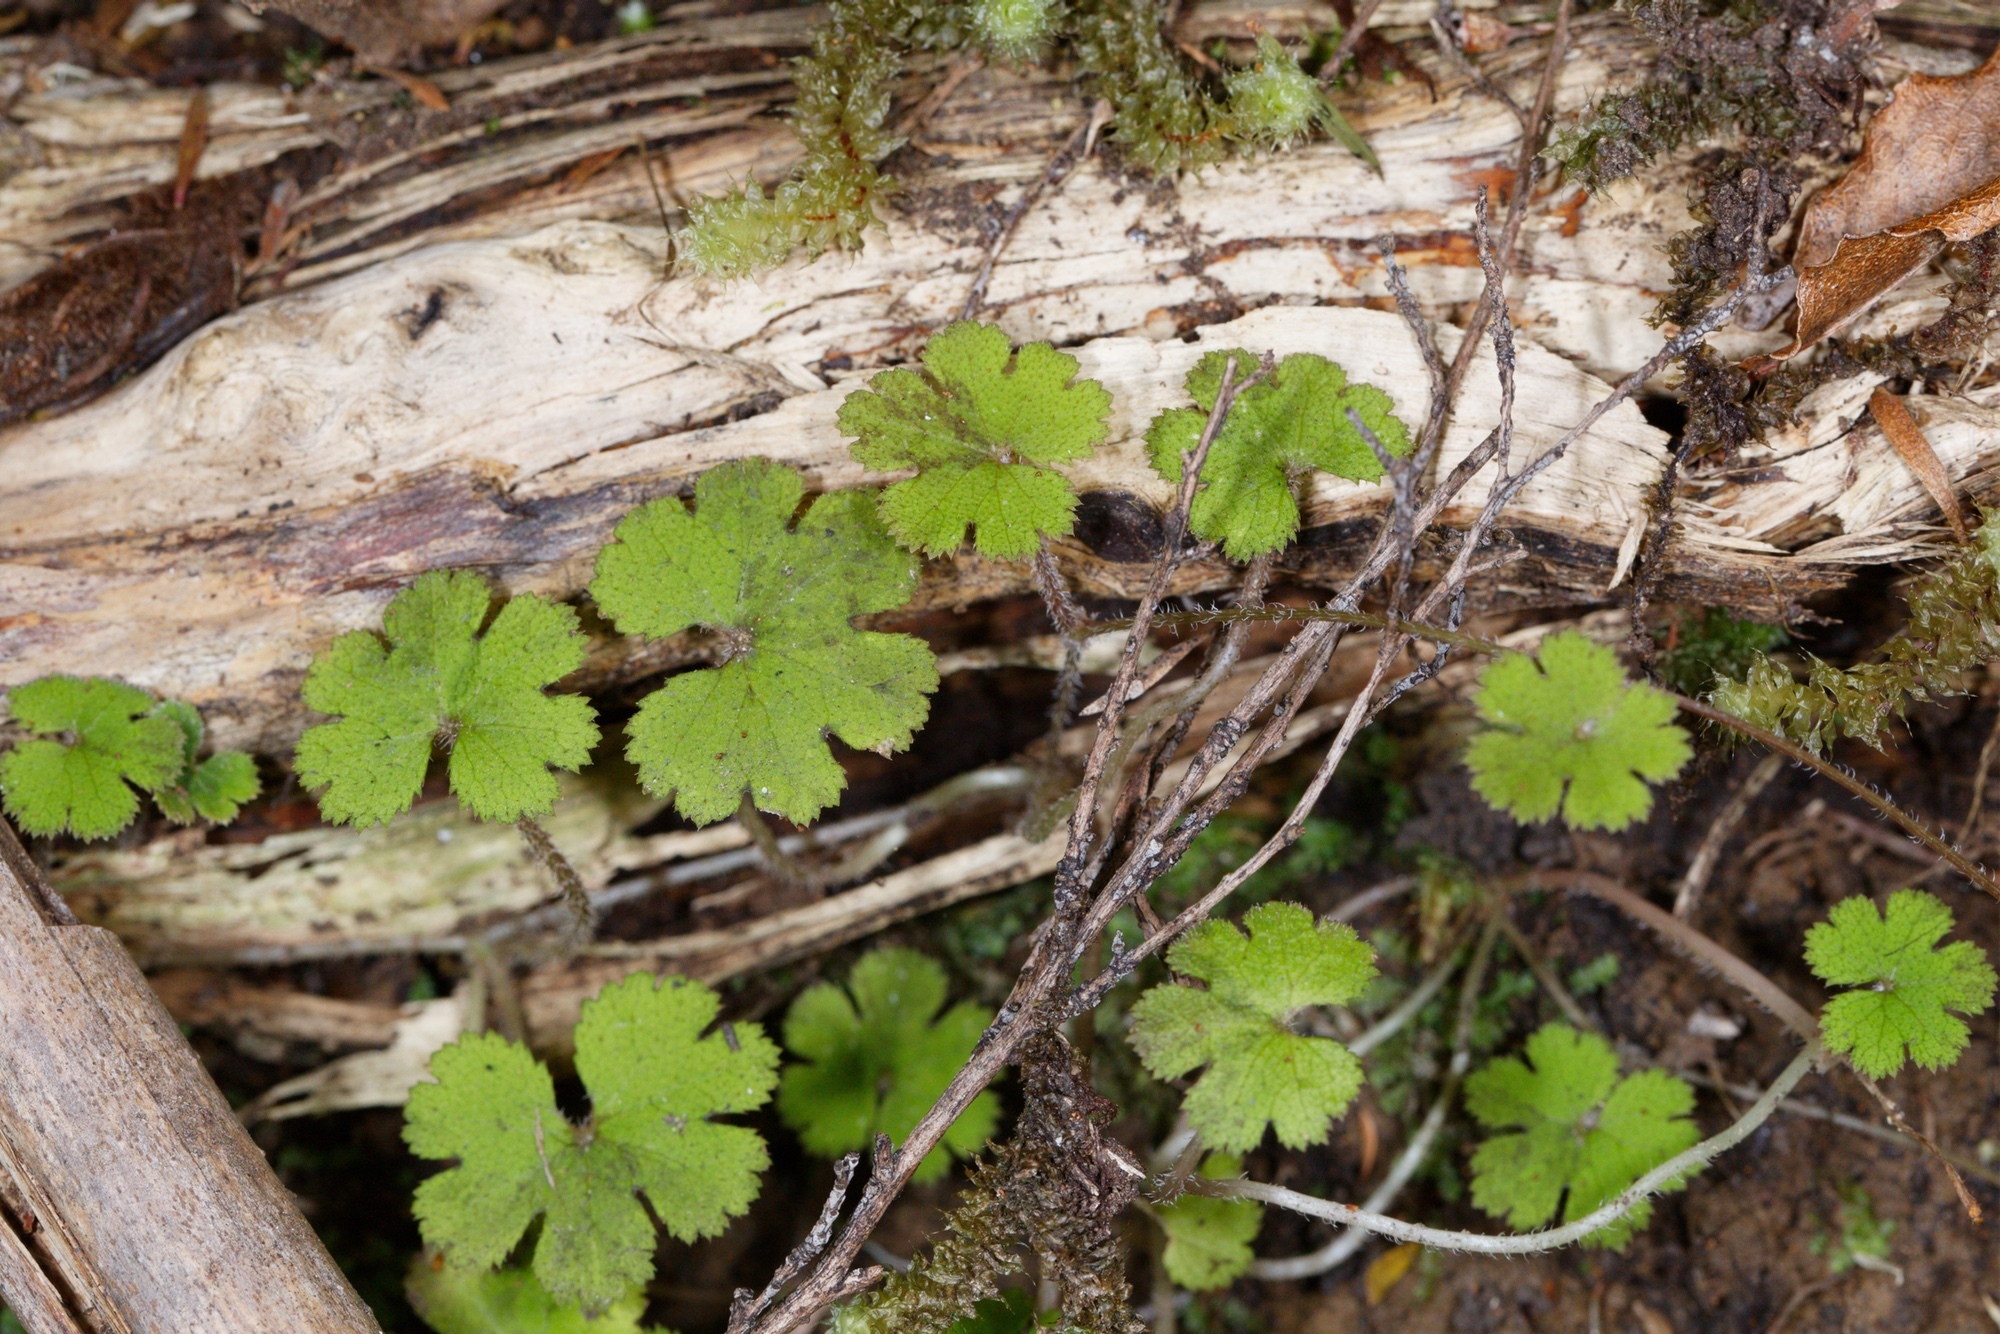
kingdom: Plantae
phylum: Tracheophyta
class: Magnoliopsida
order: Apiales
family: Araliaceae
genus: Hydrocotyle
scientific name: Hydrocotyle elongata
